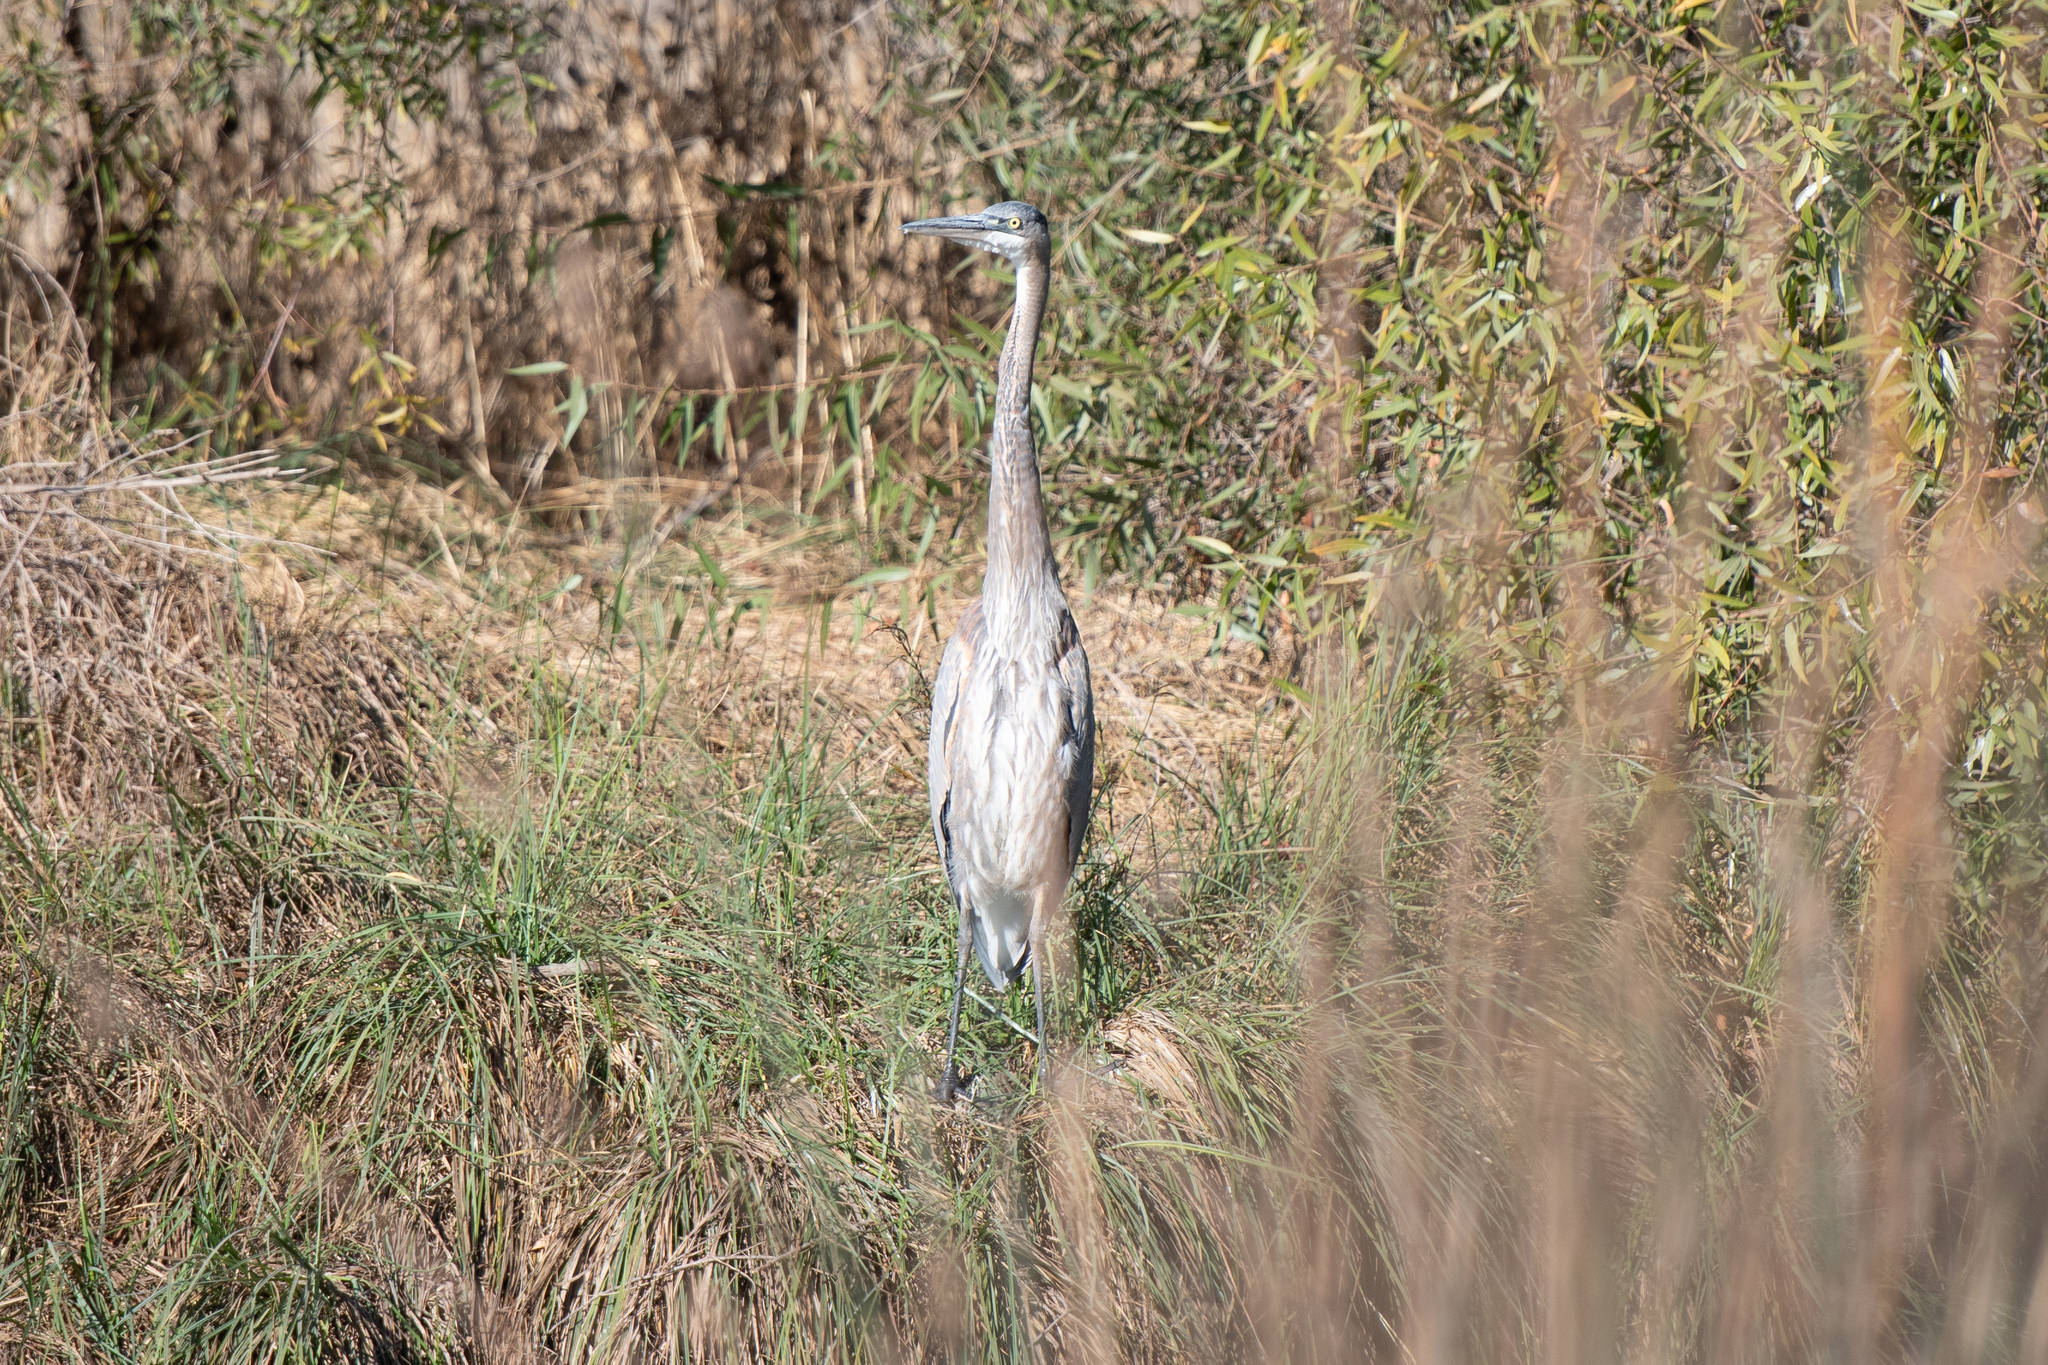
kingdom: Animalia
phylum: Chordata
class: Aves
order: Pelecaniformes
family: Ardeidae
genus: Ardea
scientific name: Ardea herodias
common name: Great blue heron
